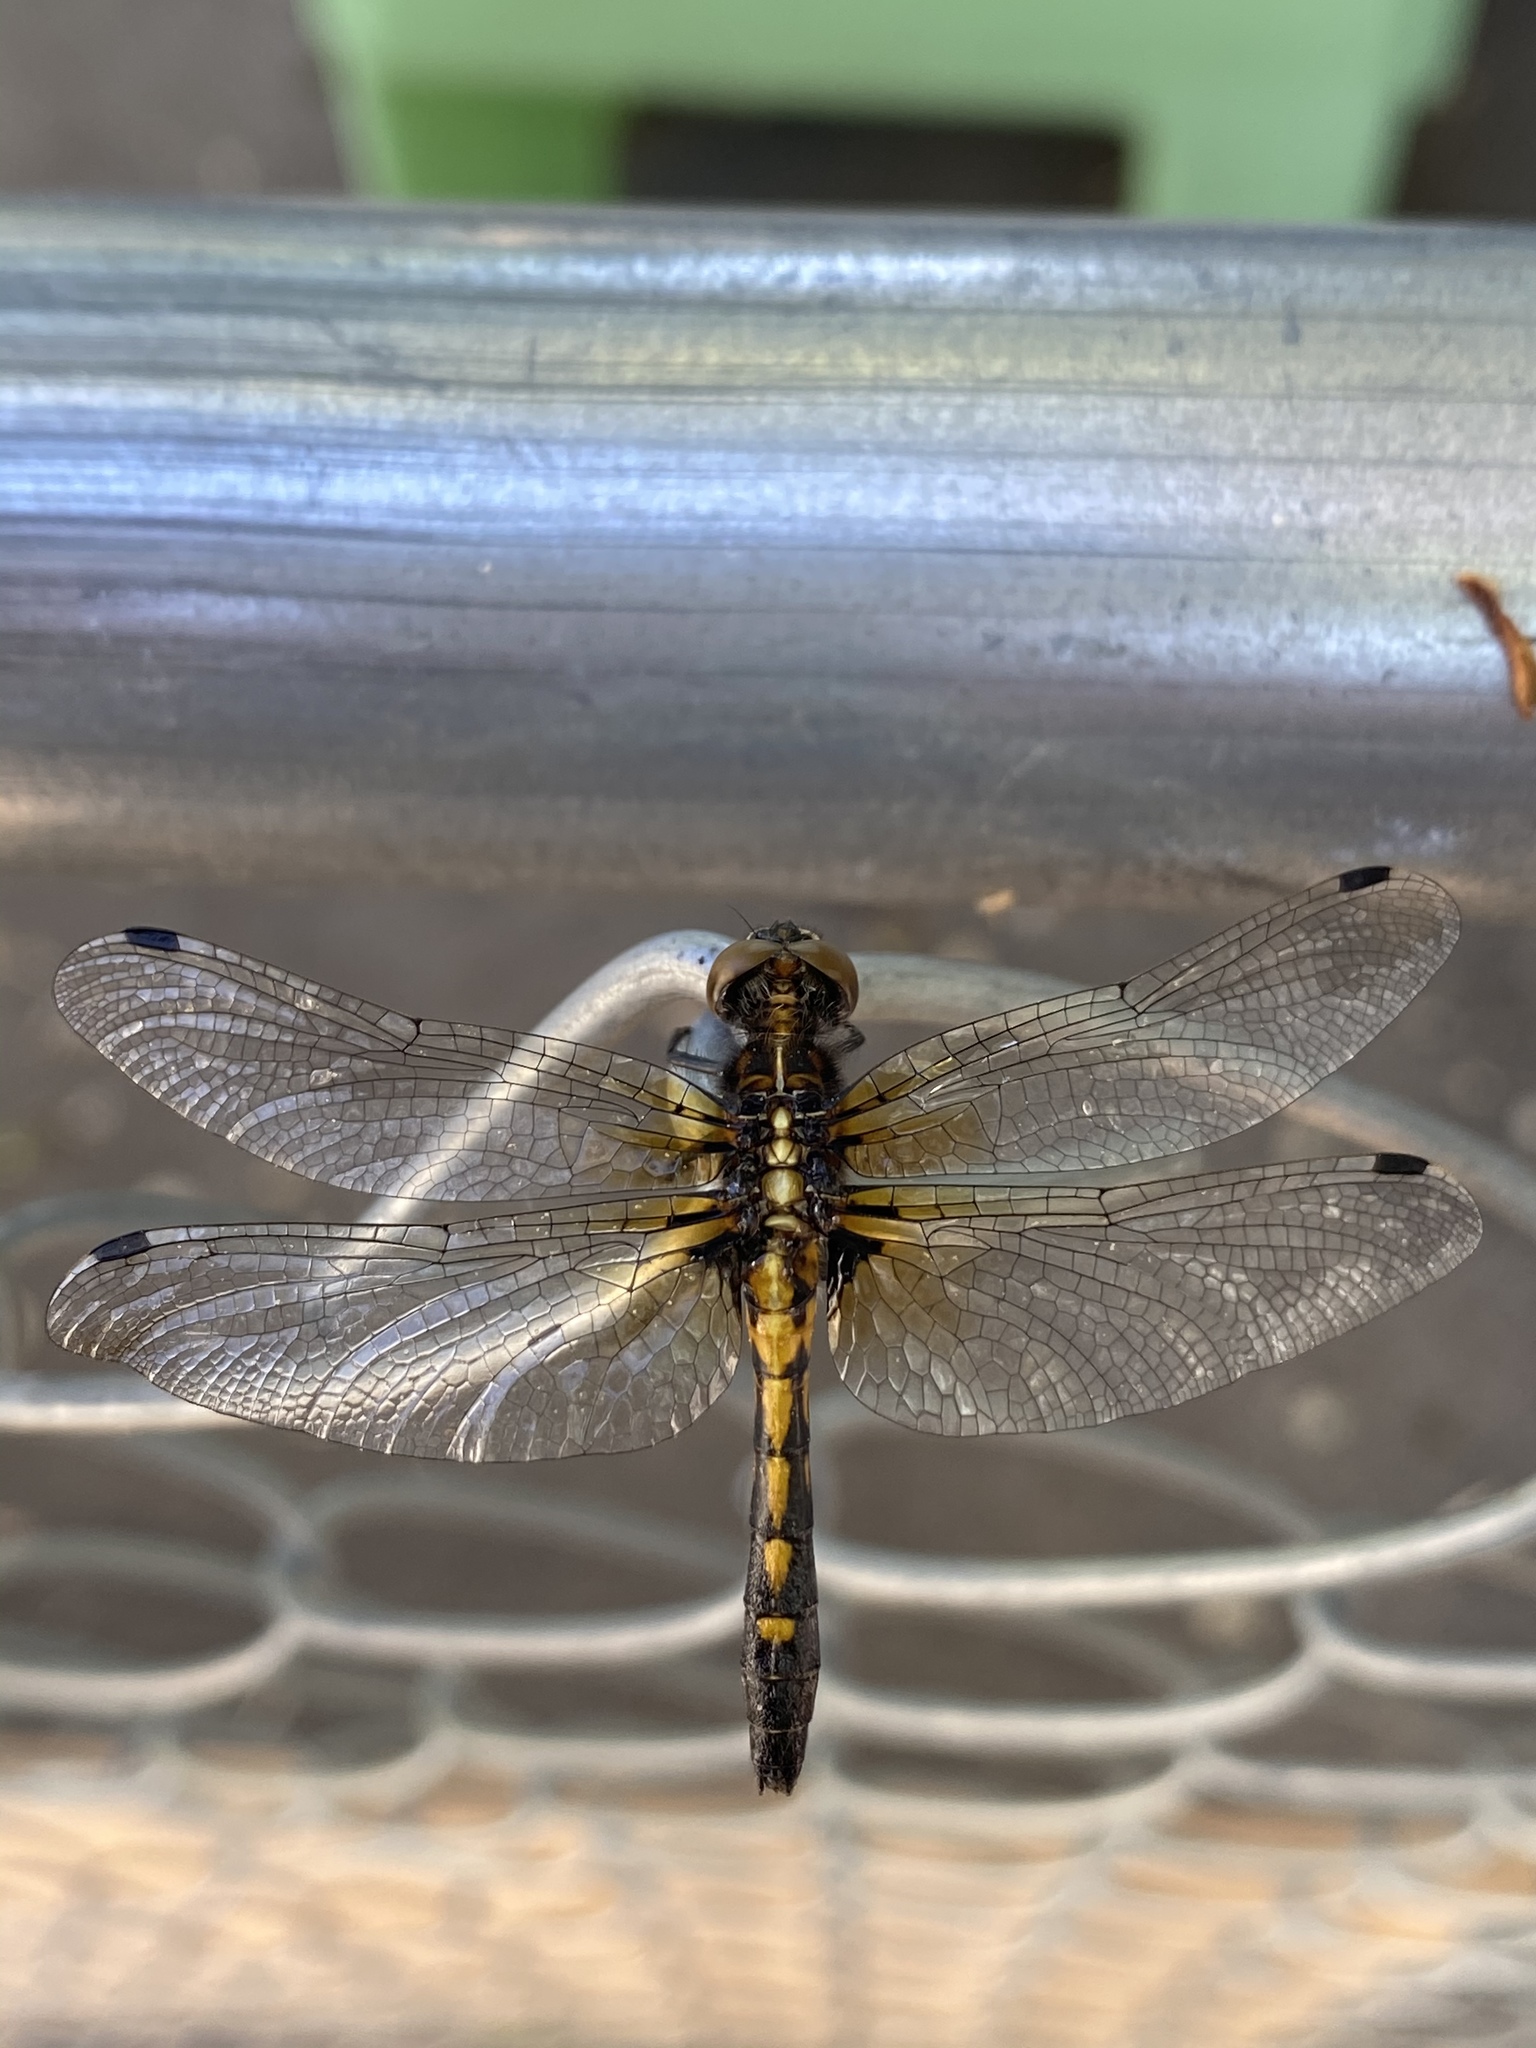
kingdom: Animalia
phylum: Arthropoda
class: Insecta
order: Odonata
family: Libellulidae
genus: Leucorrhinia
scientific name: Leucorrhinia intacta
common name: Dot-tailed whiteface
